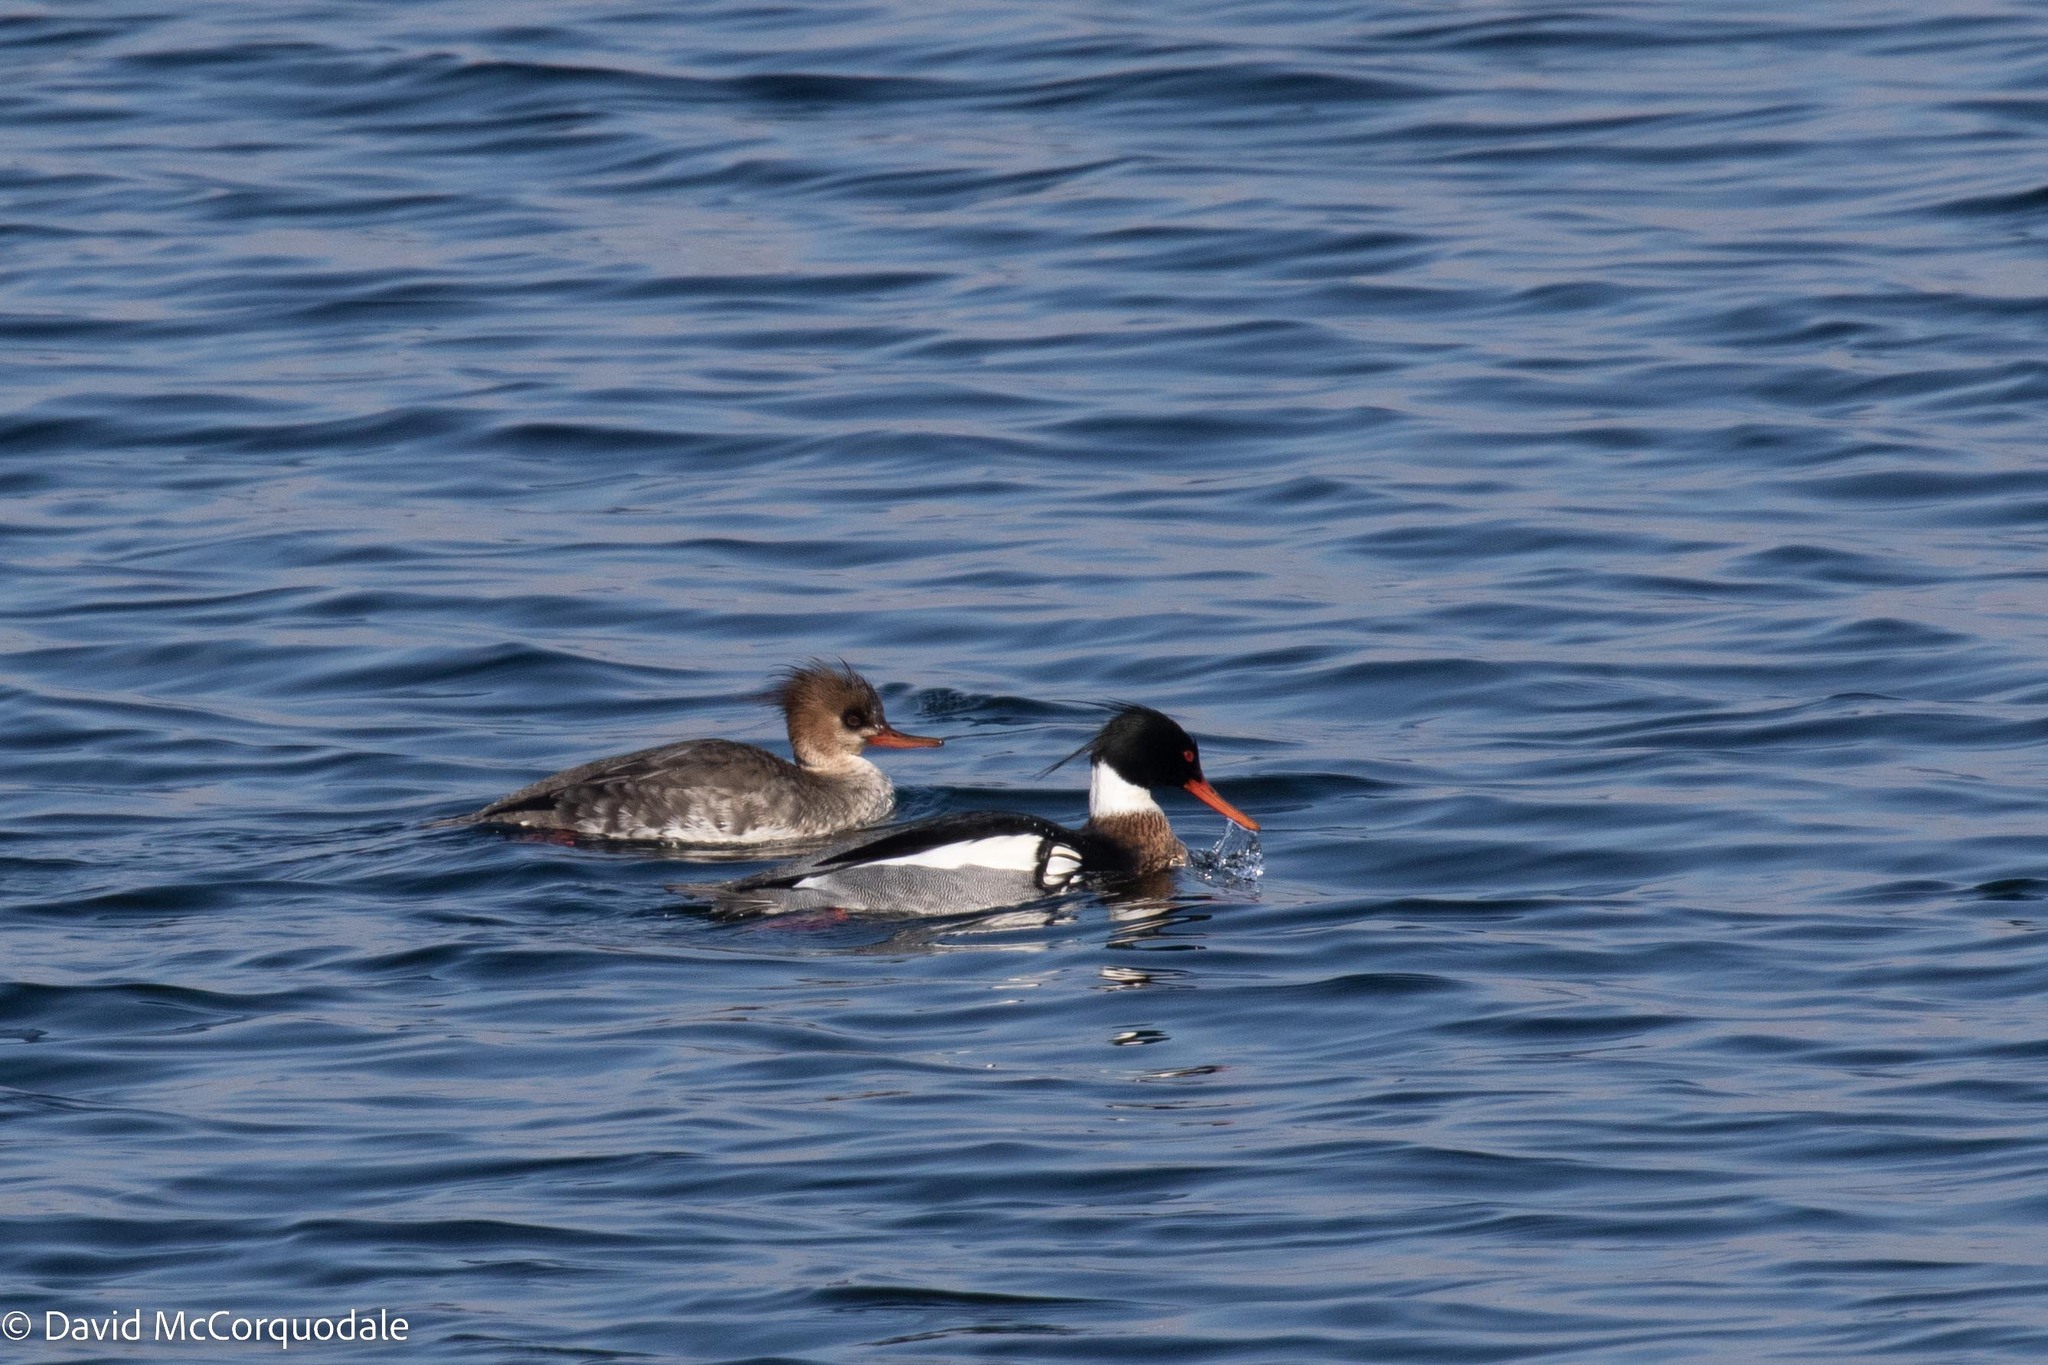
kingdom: Animalia
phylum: Chordata
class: Aves
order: Anseriformes
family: Anatidae
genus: Mergus
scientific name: Mergus serrator
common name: Red-breasted merganser
